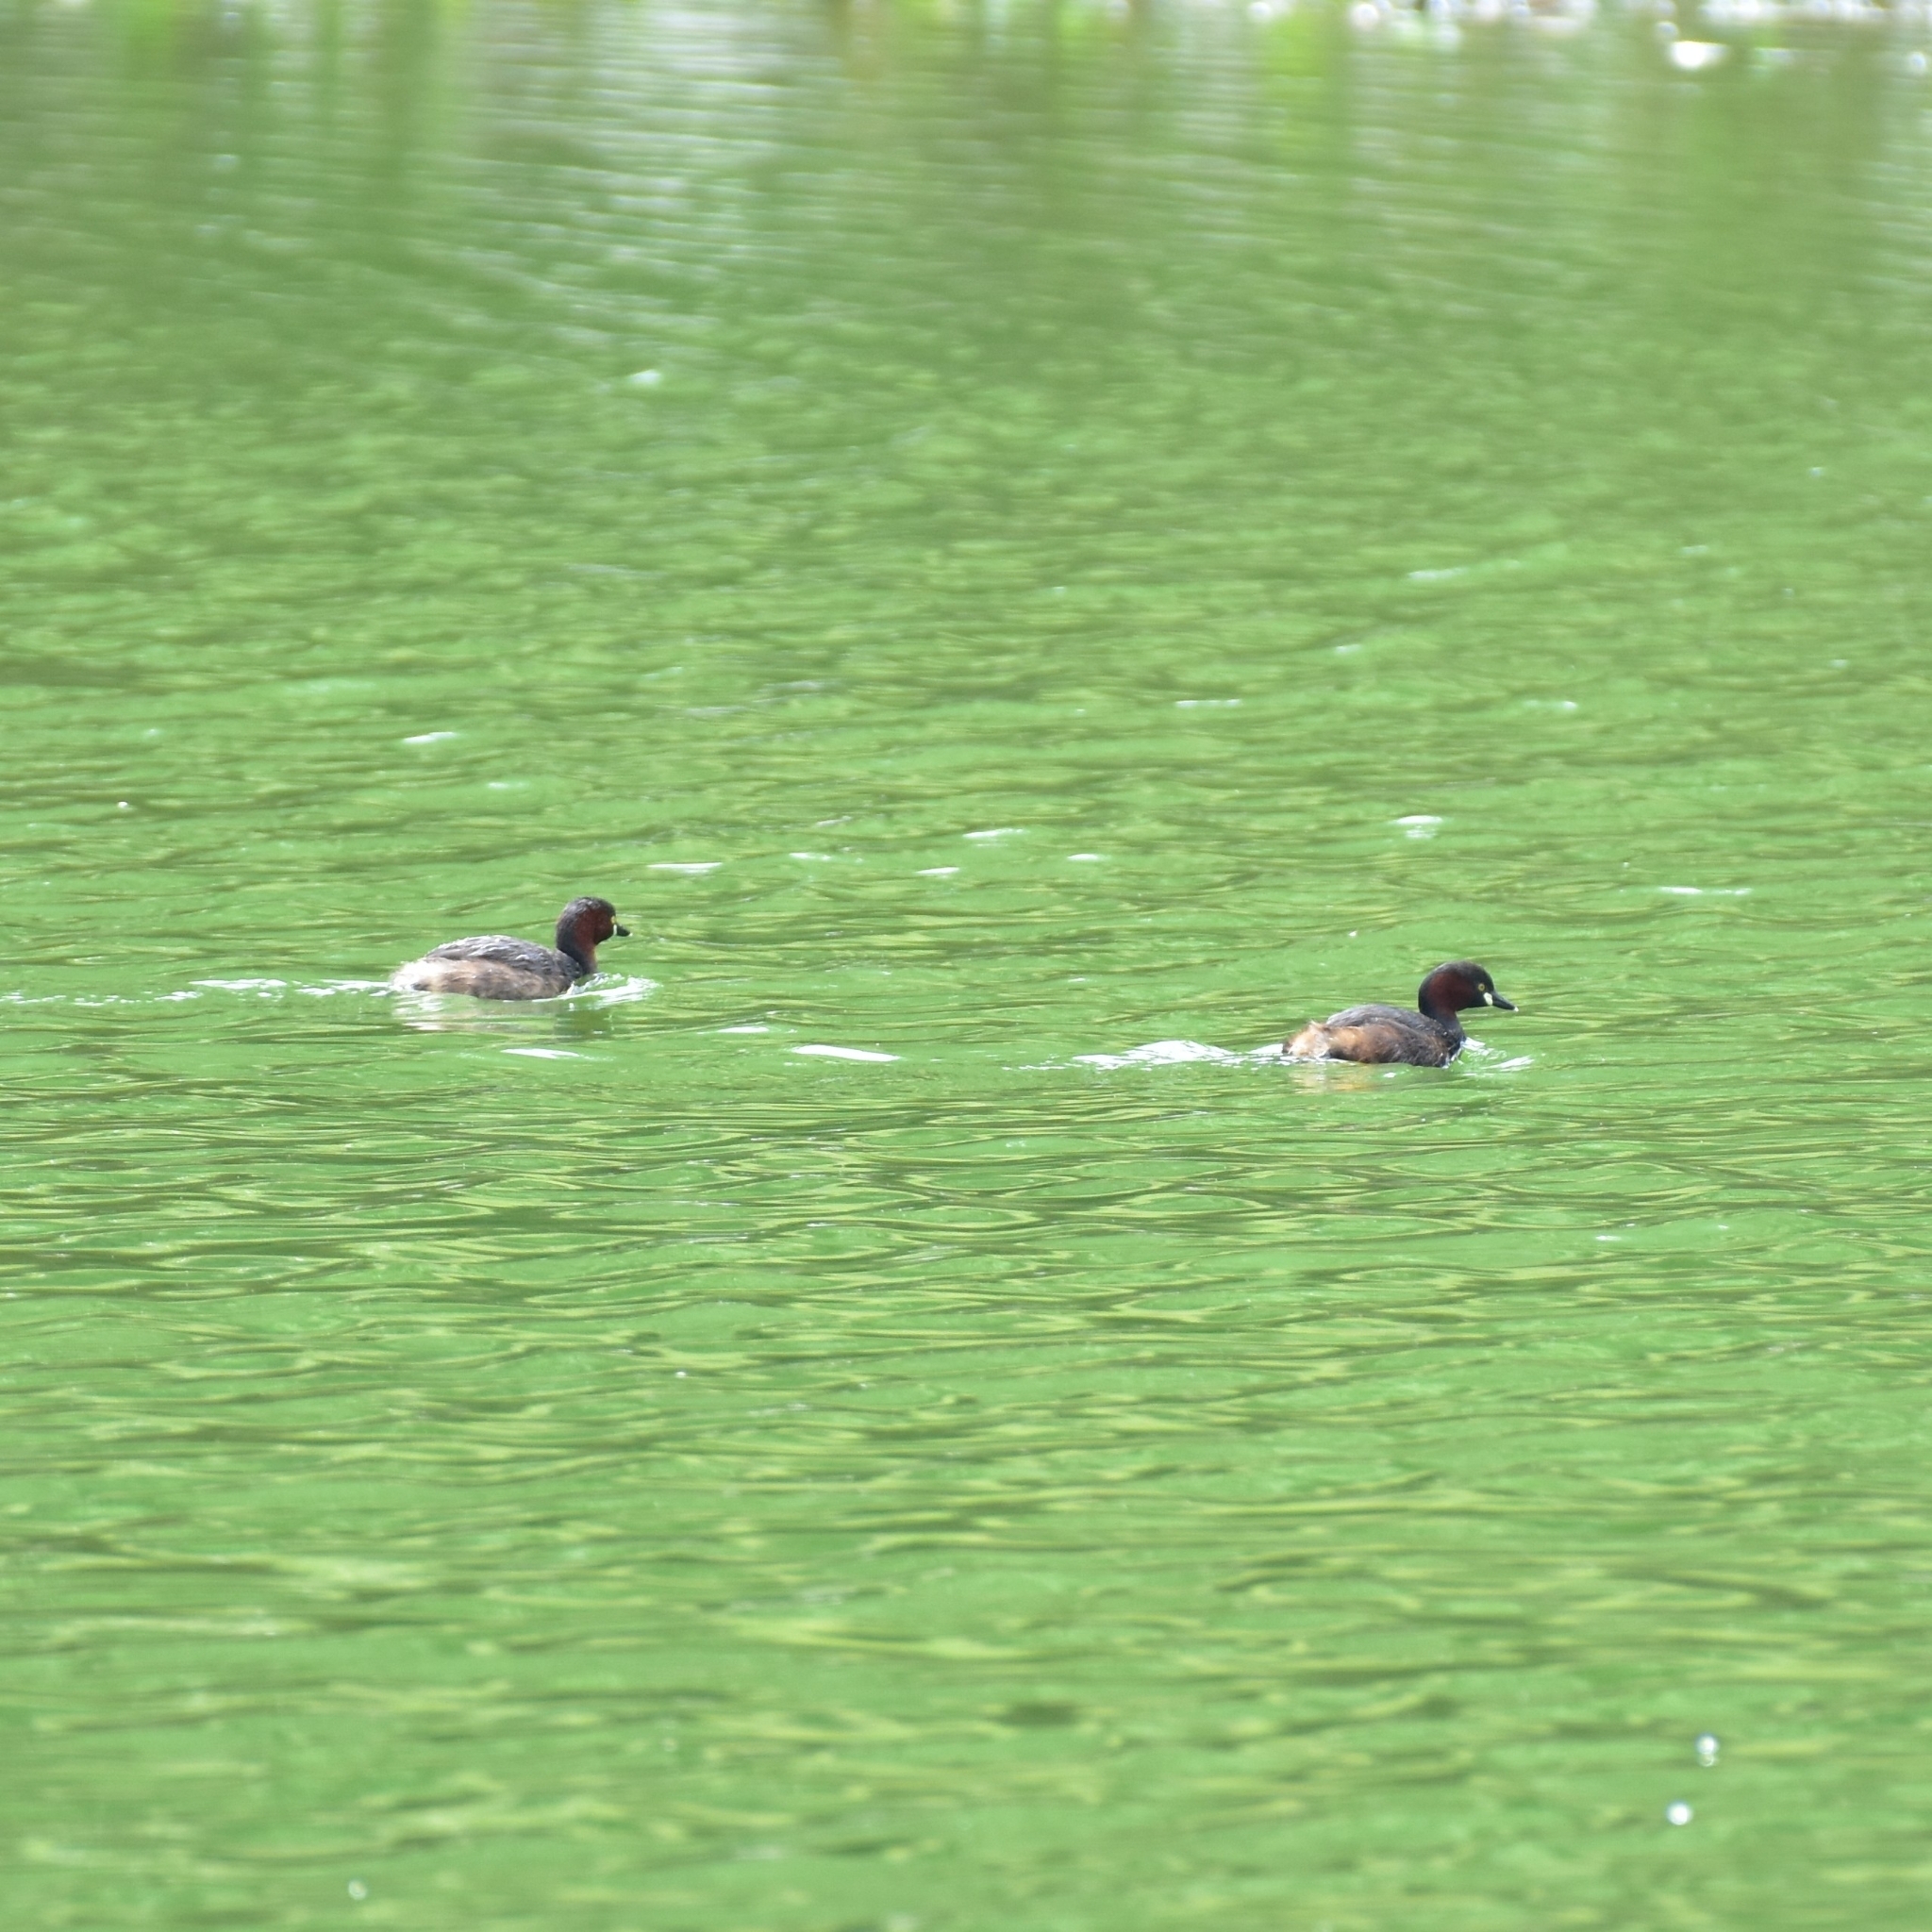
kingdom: Animalia
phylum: Chordata
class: Aves
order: Podicipediformes
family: Podicipedidae
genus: Tachybaptus
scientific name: Tachybaptus ruficollis
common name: Little grebe
